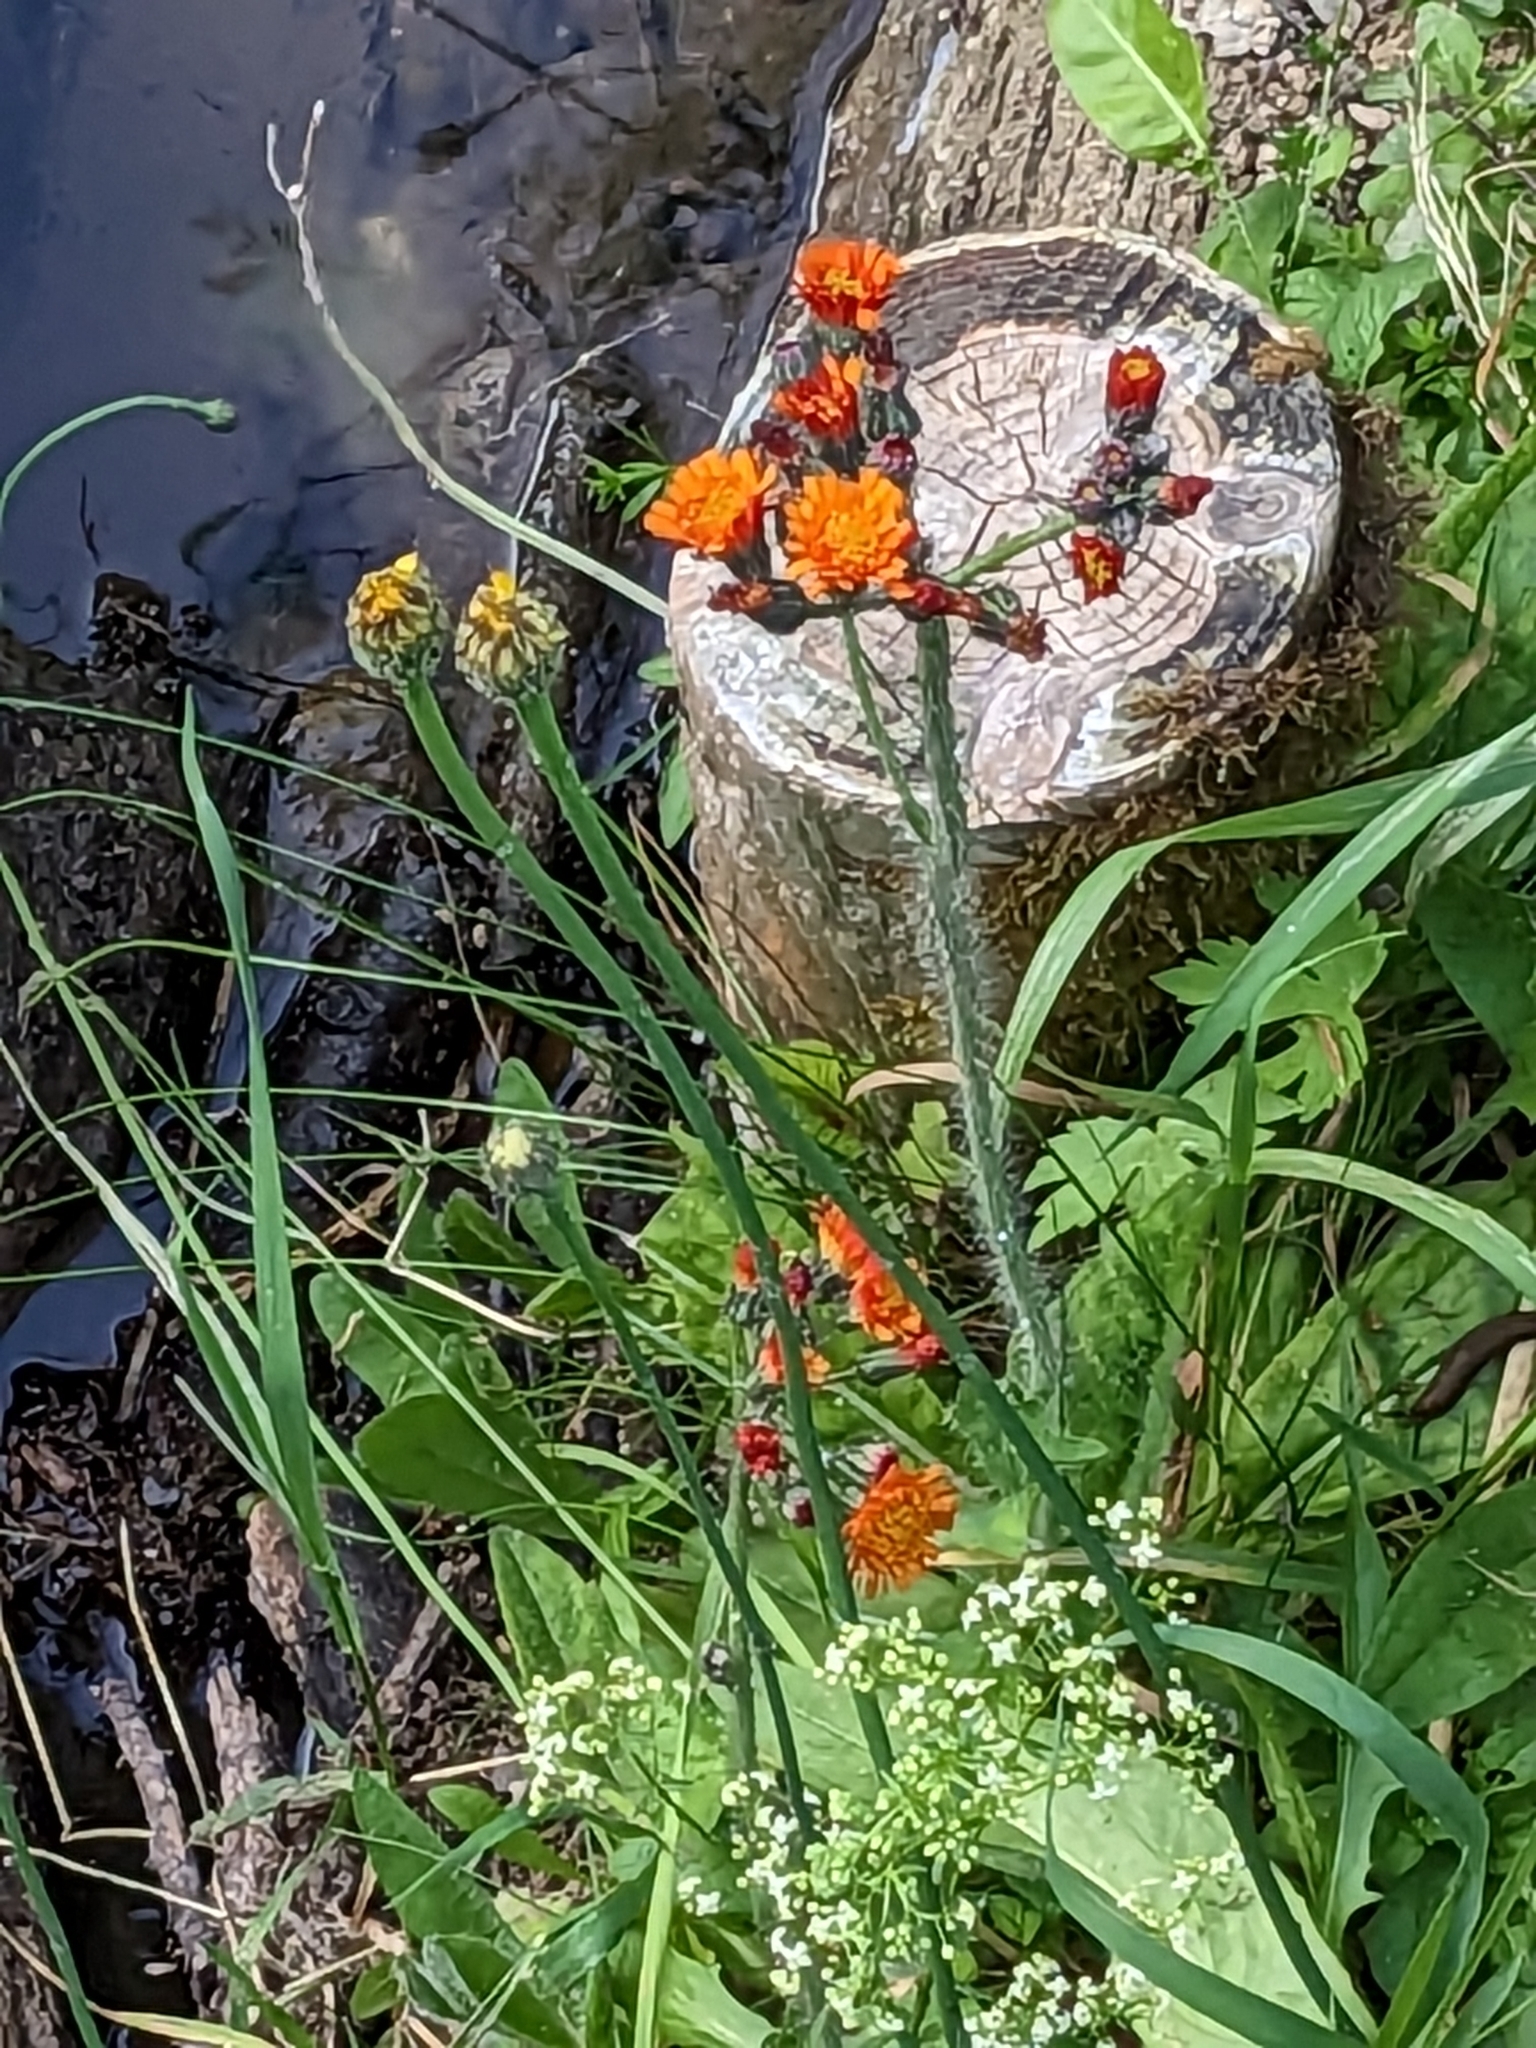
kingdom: Plantae
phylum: Tracheophyta
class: Magnoliopsida
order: Asterales
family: Asteraceae
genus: Pilosella
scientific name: Pilosella aurantiaca
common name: Fox-and-cubs
